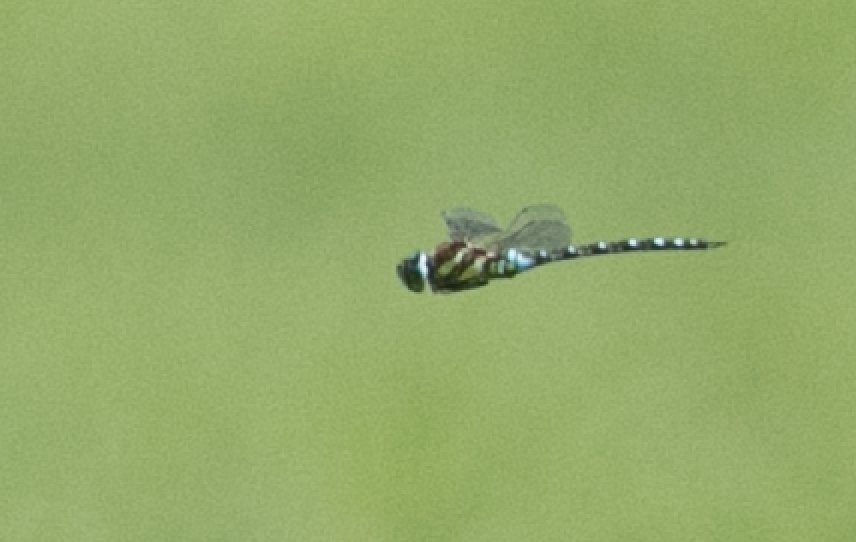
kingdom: Animalia
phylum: Arthropoda
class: Insecta
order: Odonata
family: Aeshnidae
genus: Aeshna
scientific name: Aeshna mixta
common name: Migrant hawker
